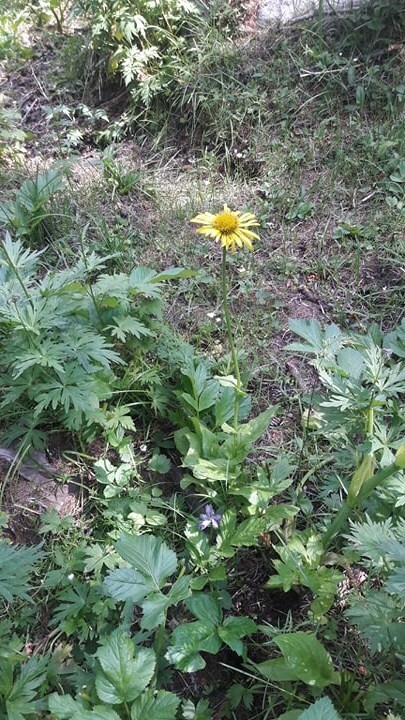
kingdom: Plantae
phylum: Tracheophyta
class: Magnoliopsida
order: Asterales
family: Asteraceae
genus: Doronicum
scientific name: Doronicum oblongifolium
